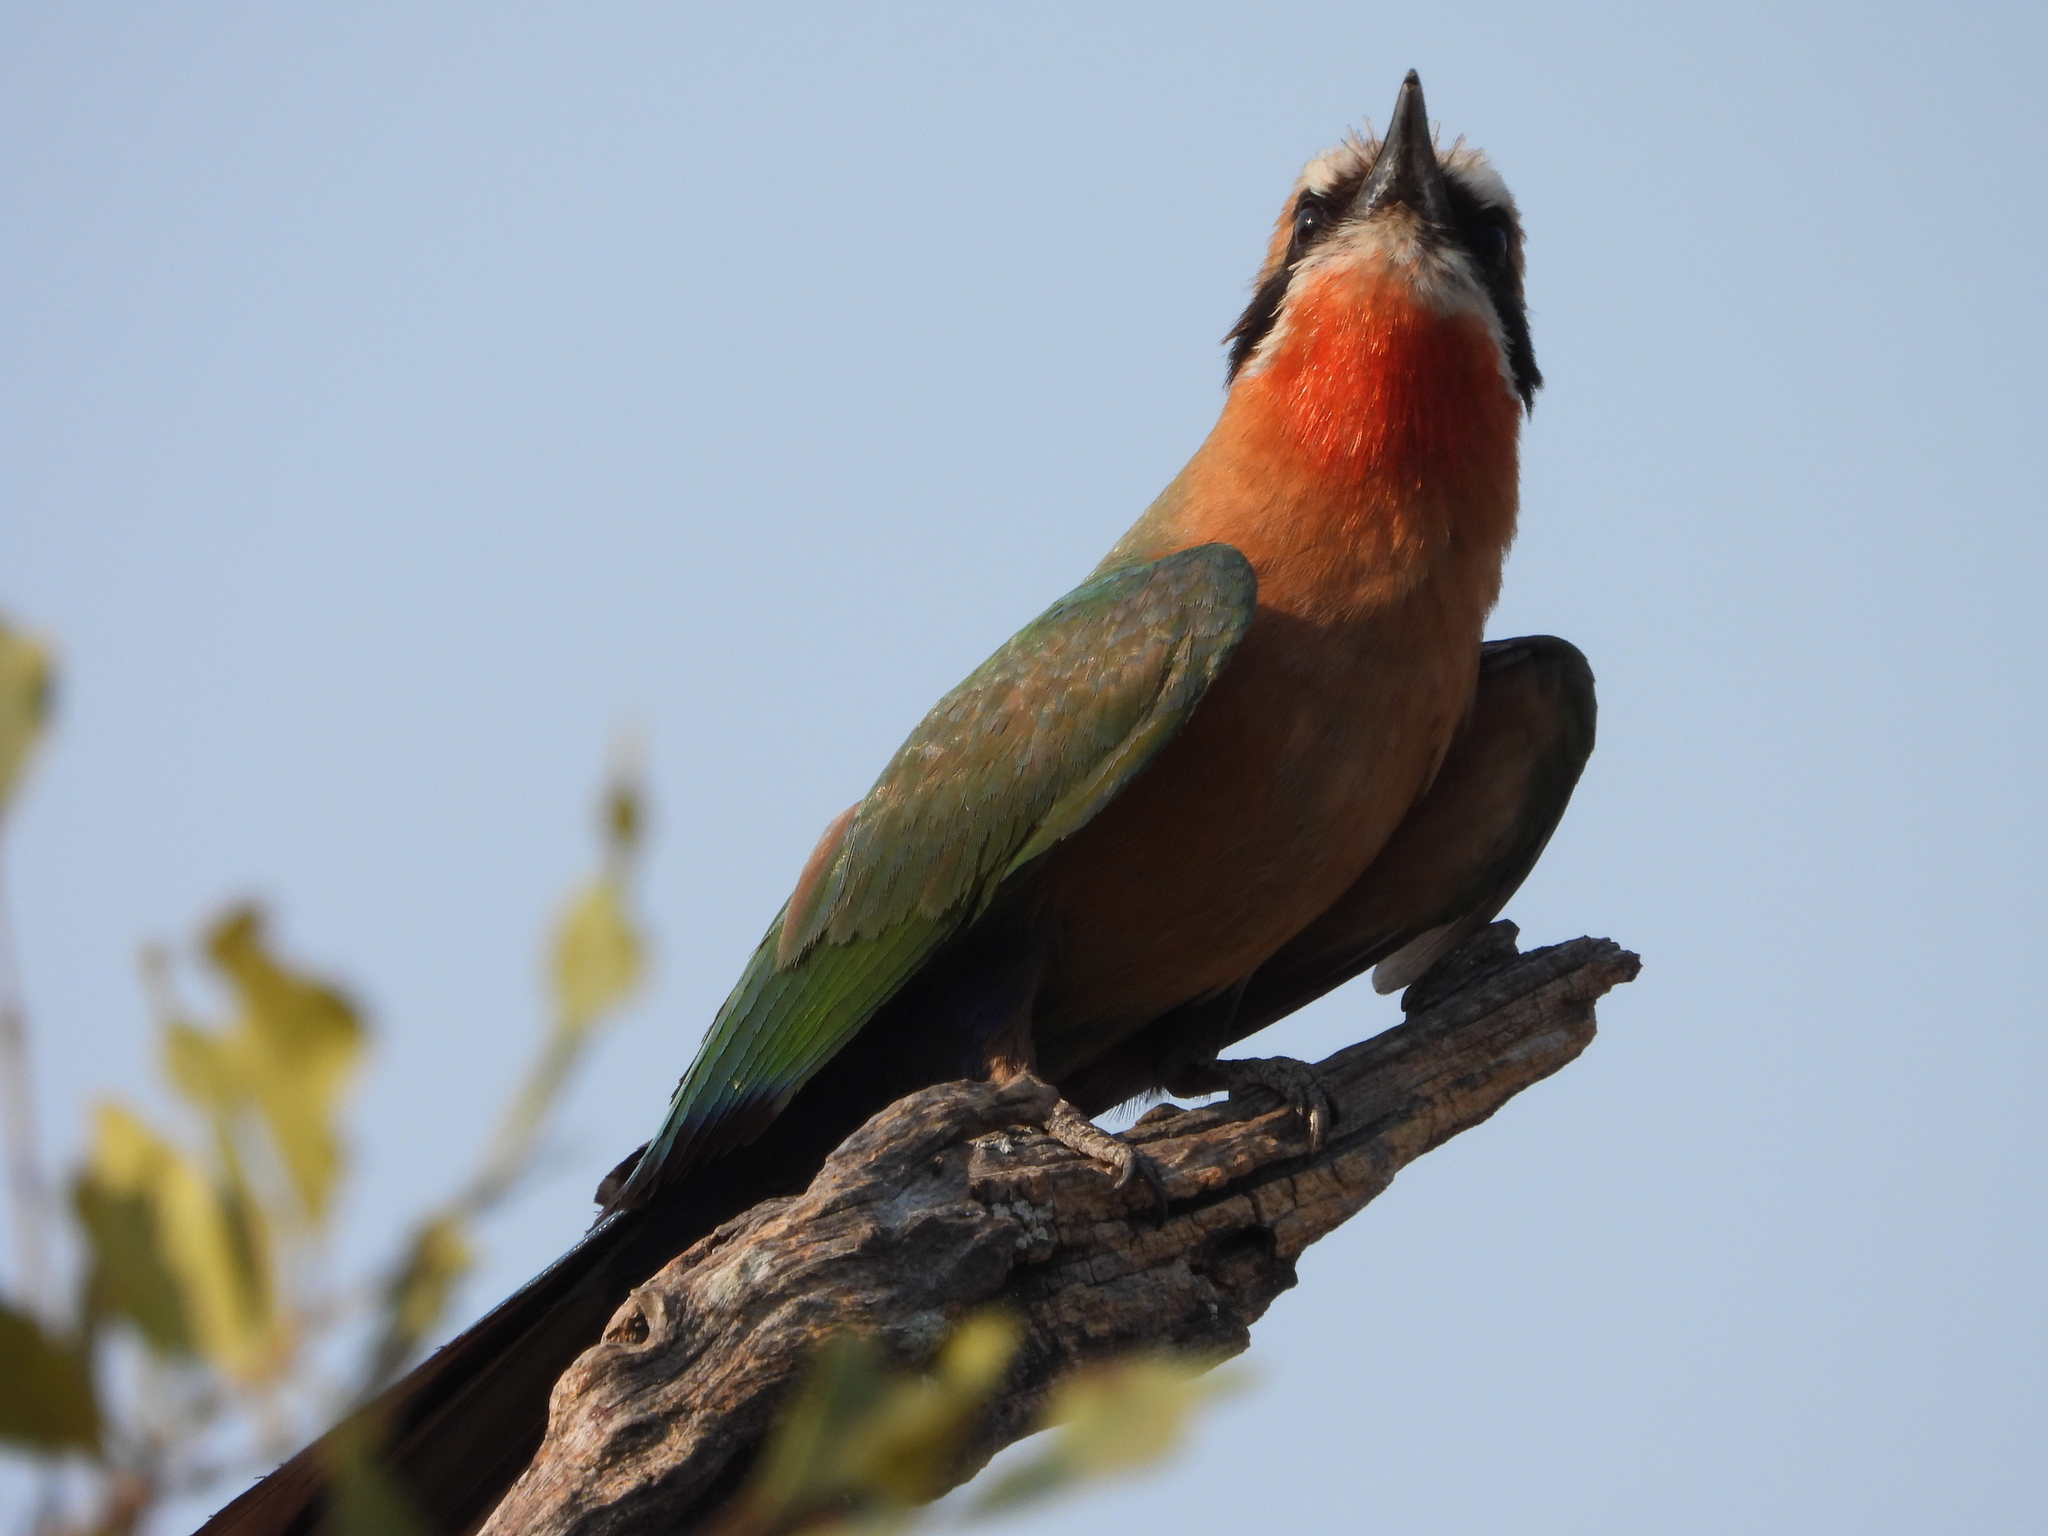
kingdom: Animalia
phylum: Chordata
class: Aves
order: Coraciiformes
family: Meropidae
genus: Merops
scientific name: Merops bullockoides
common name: White-fronted bee-eater
